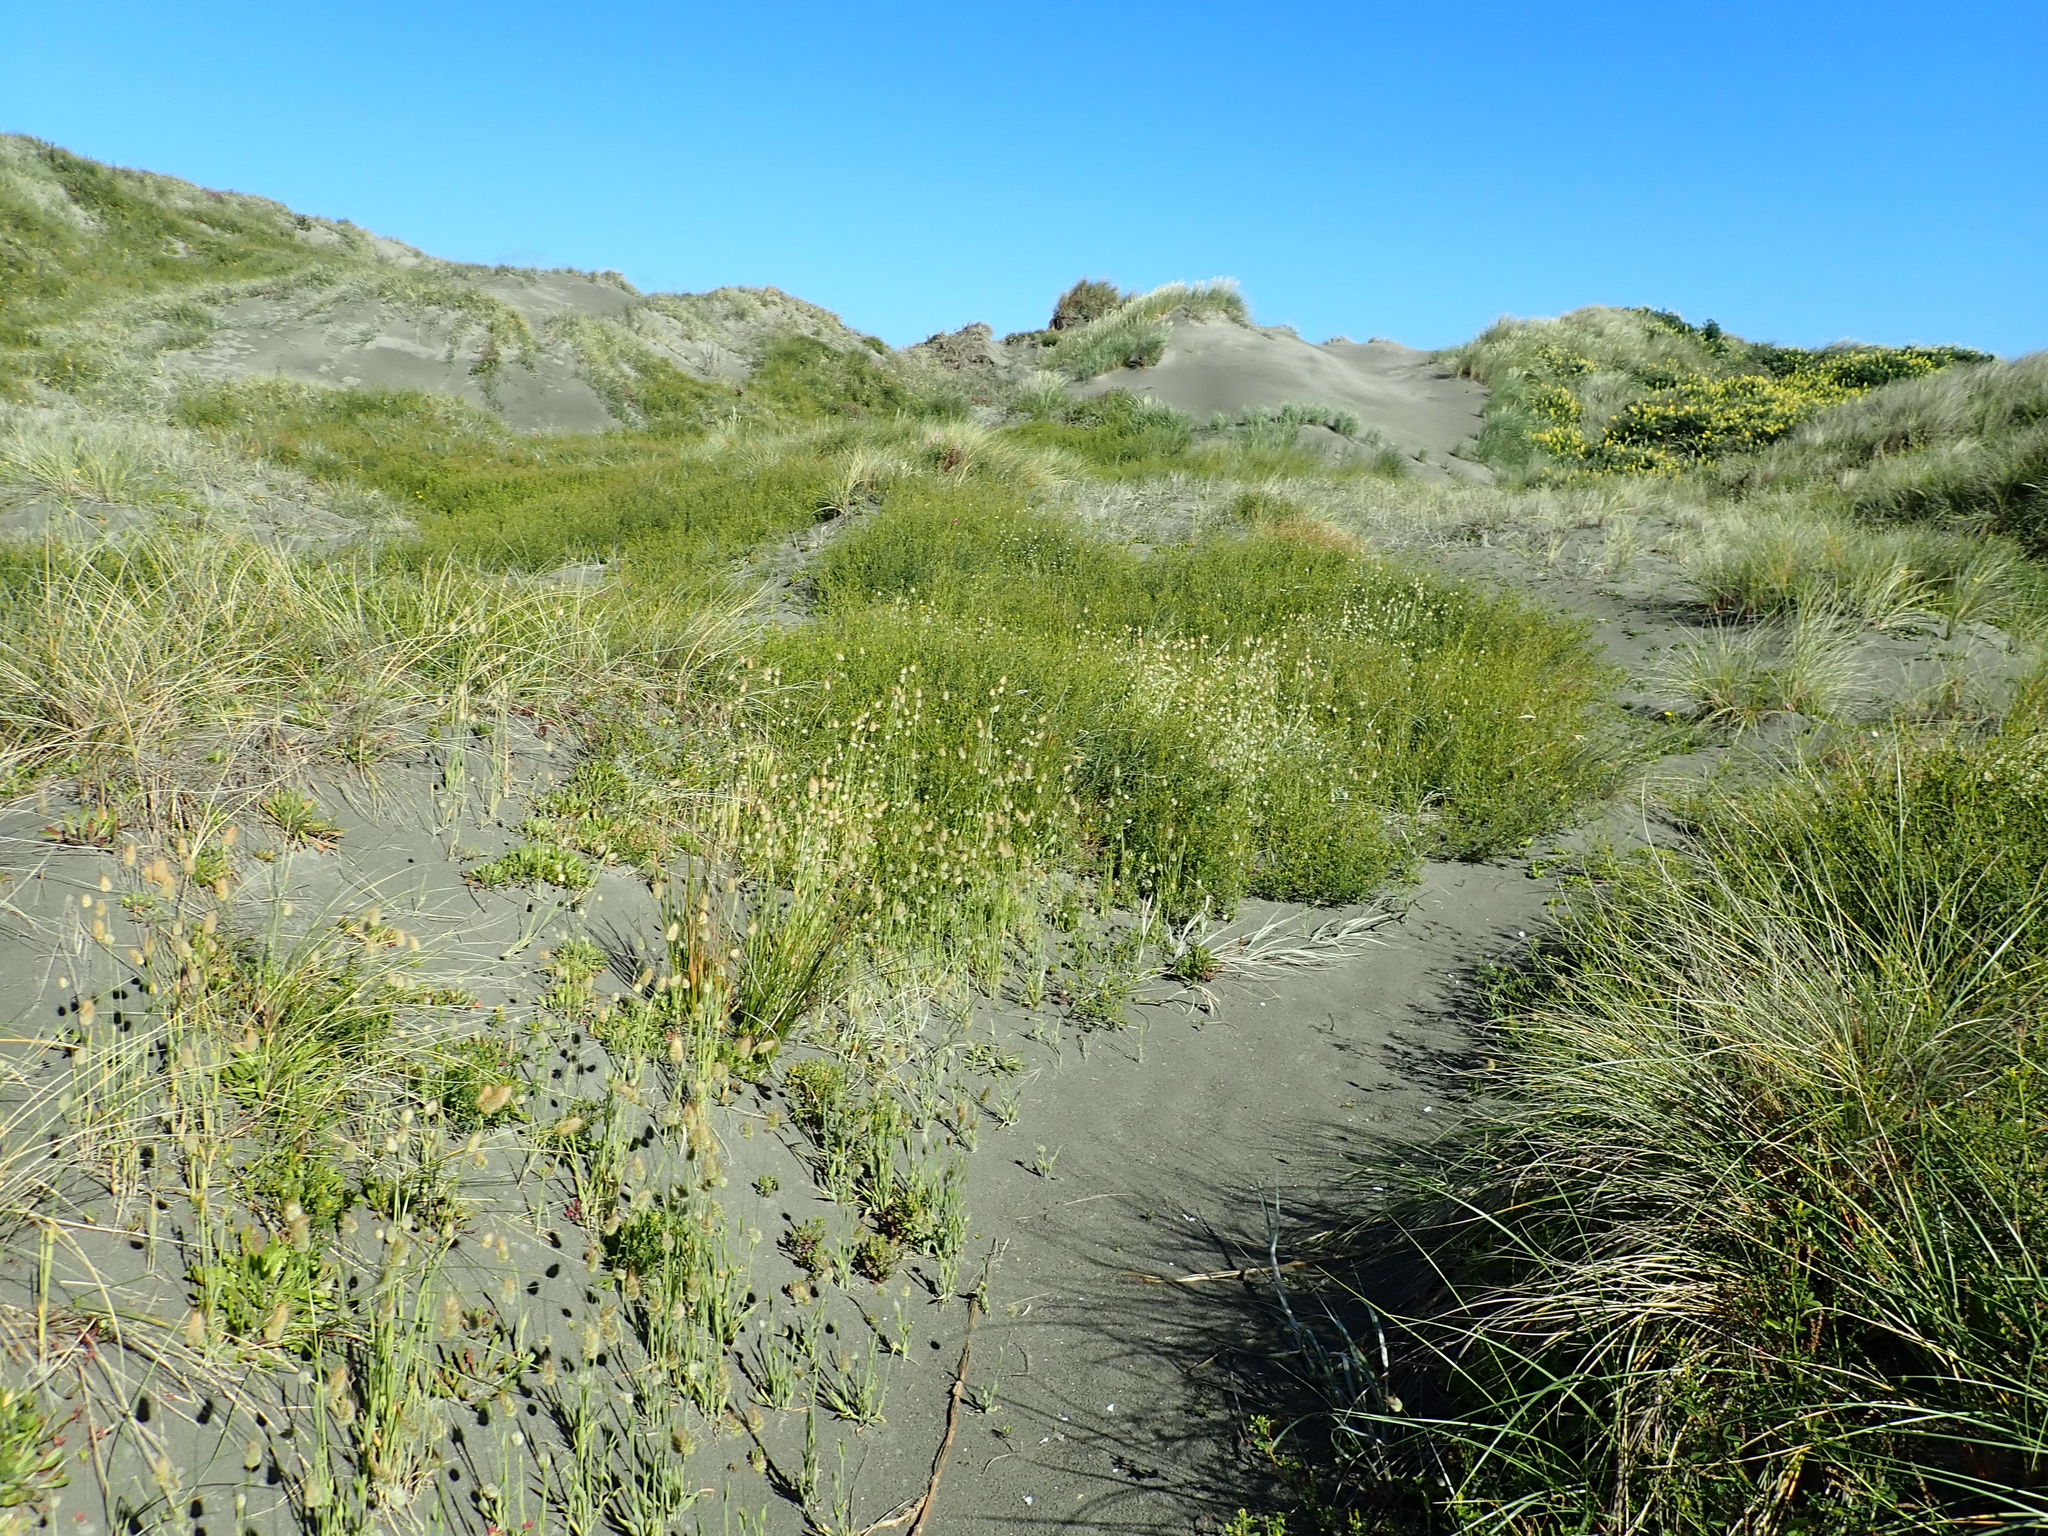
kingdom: Plantae
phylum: Tracheophyta
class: Magnoliopsida
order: Fabales
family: Fabaceae
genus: Melilotus
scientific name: Melilotus indicus
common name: Small melilot
